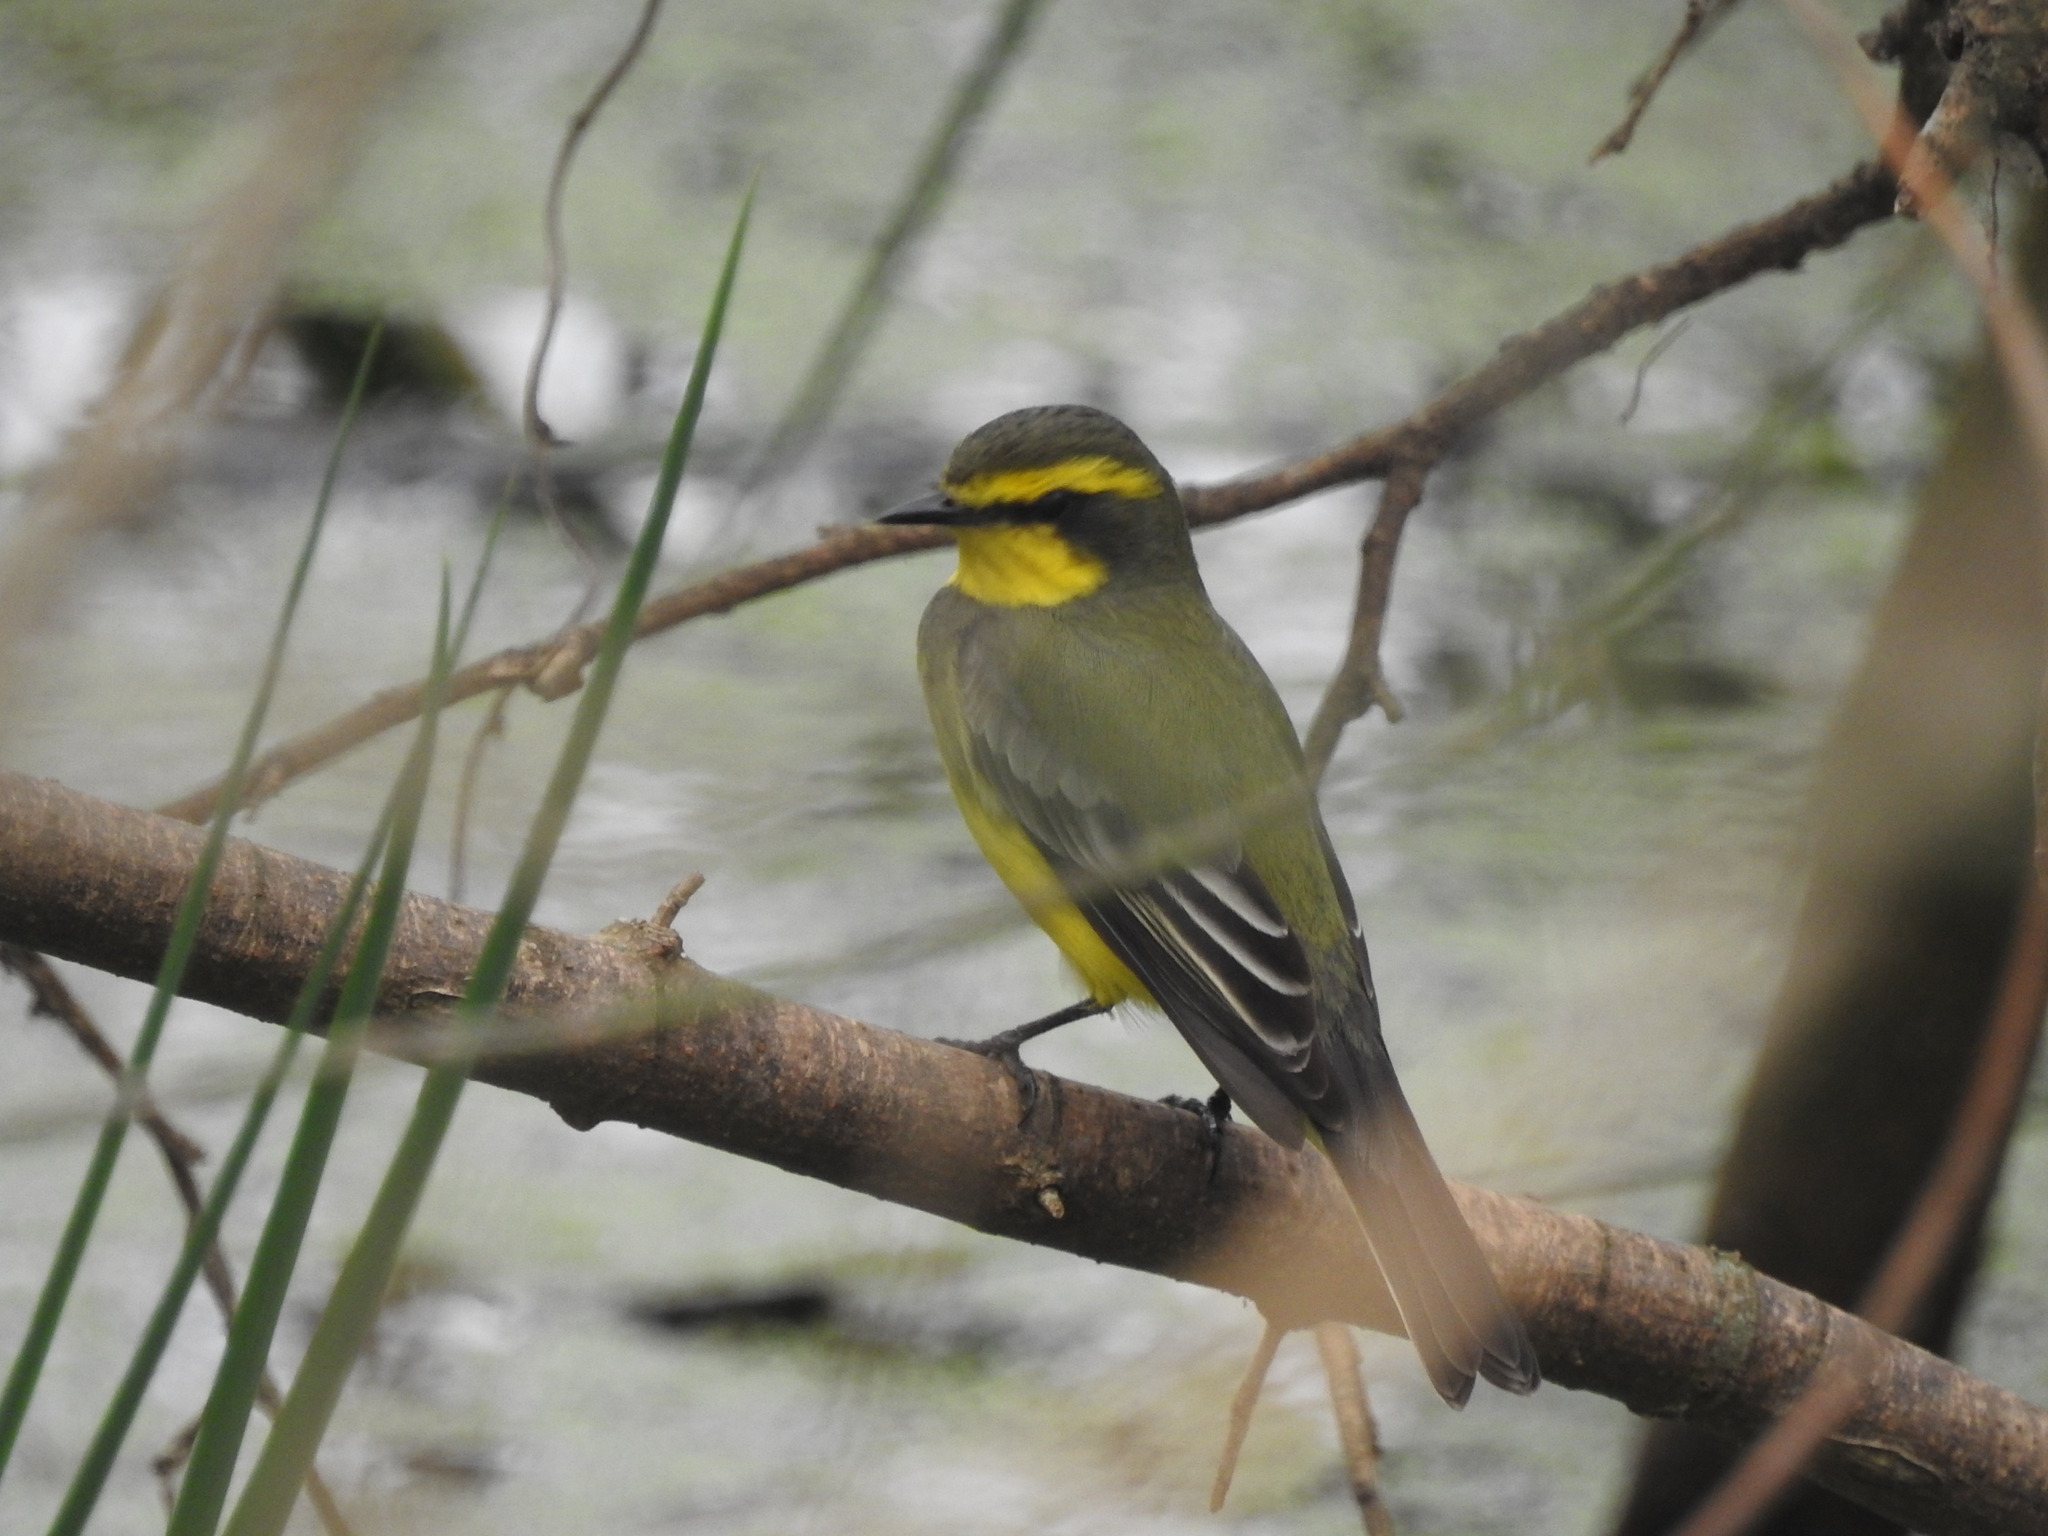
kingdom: Animalia
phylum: Chordata
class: Aves
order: Passeriformes
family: Tyrannidae
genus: Satrapa
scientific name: Satrapa icterophrys
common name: Yellow-browed tyrant
